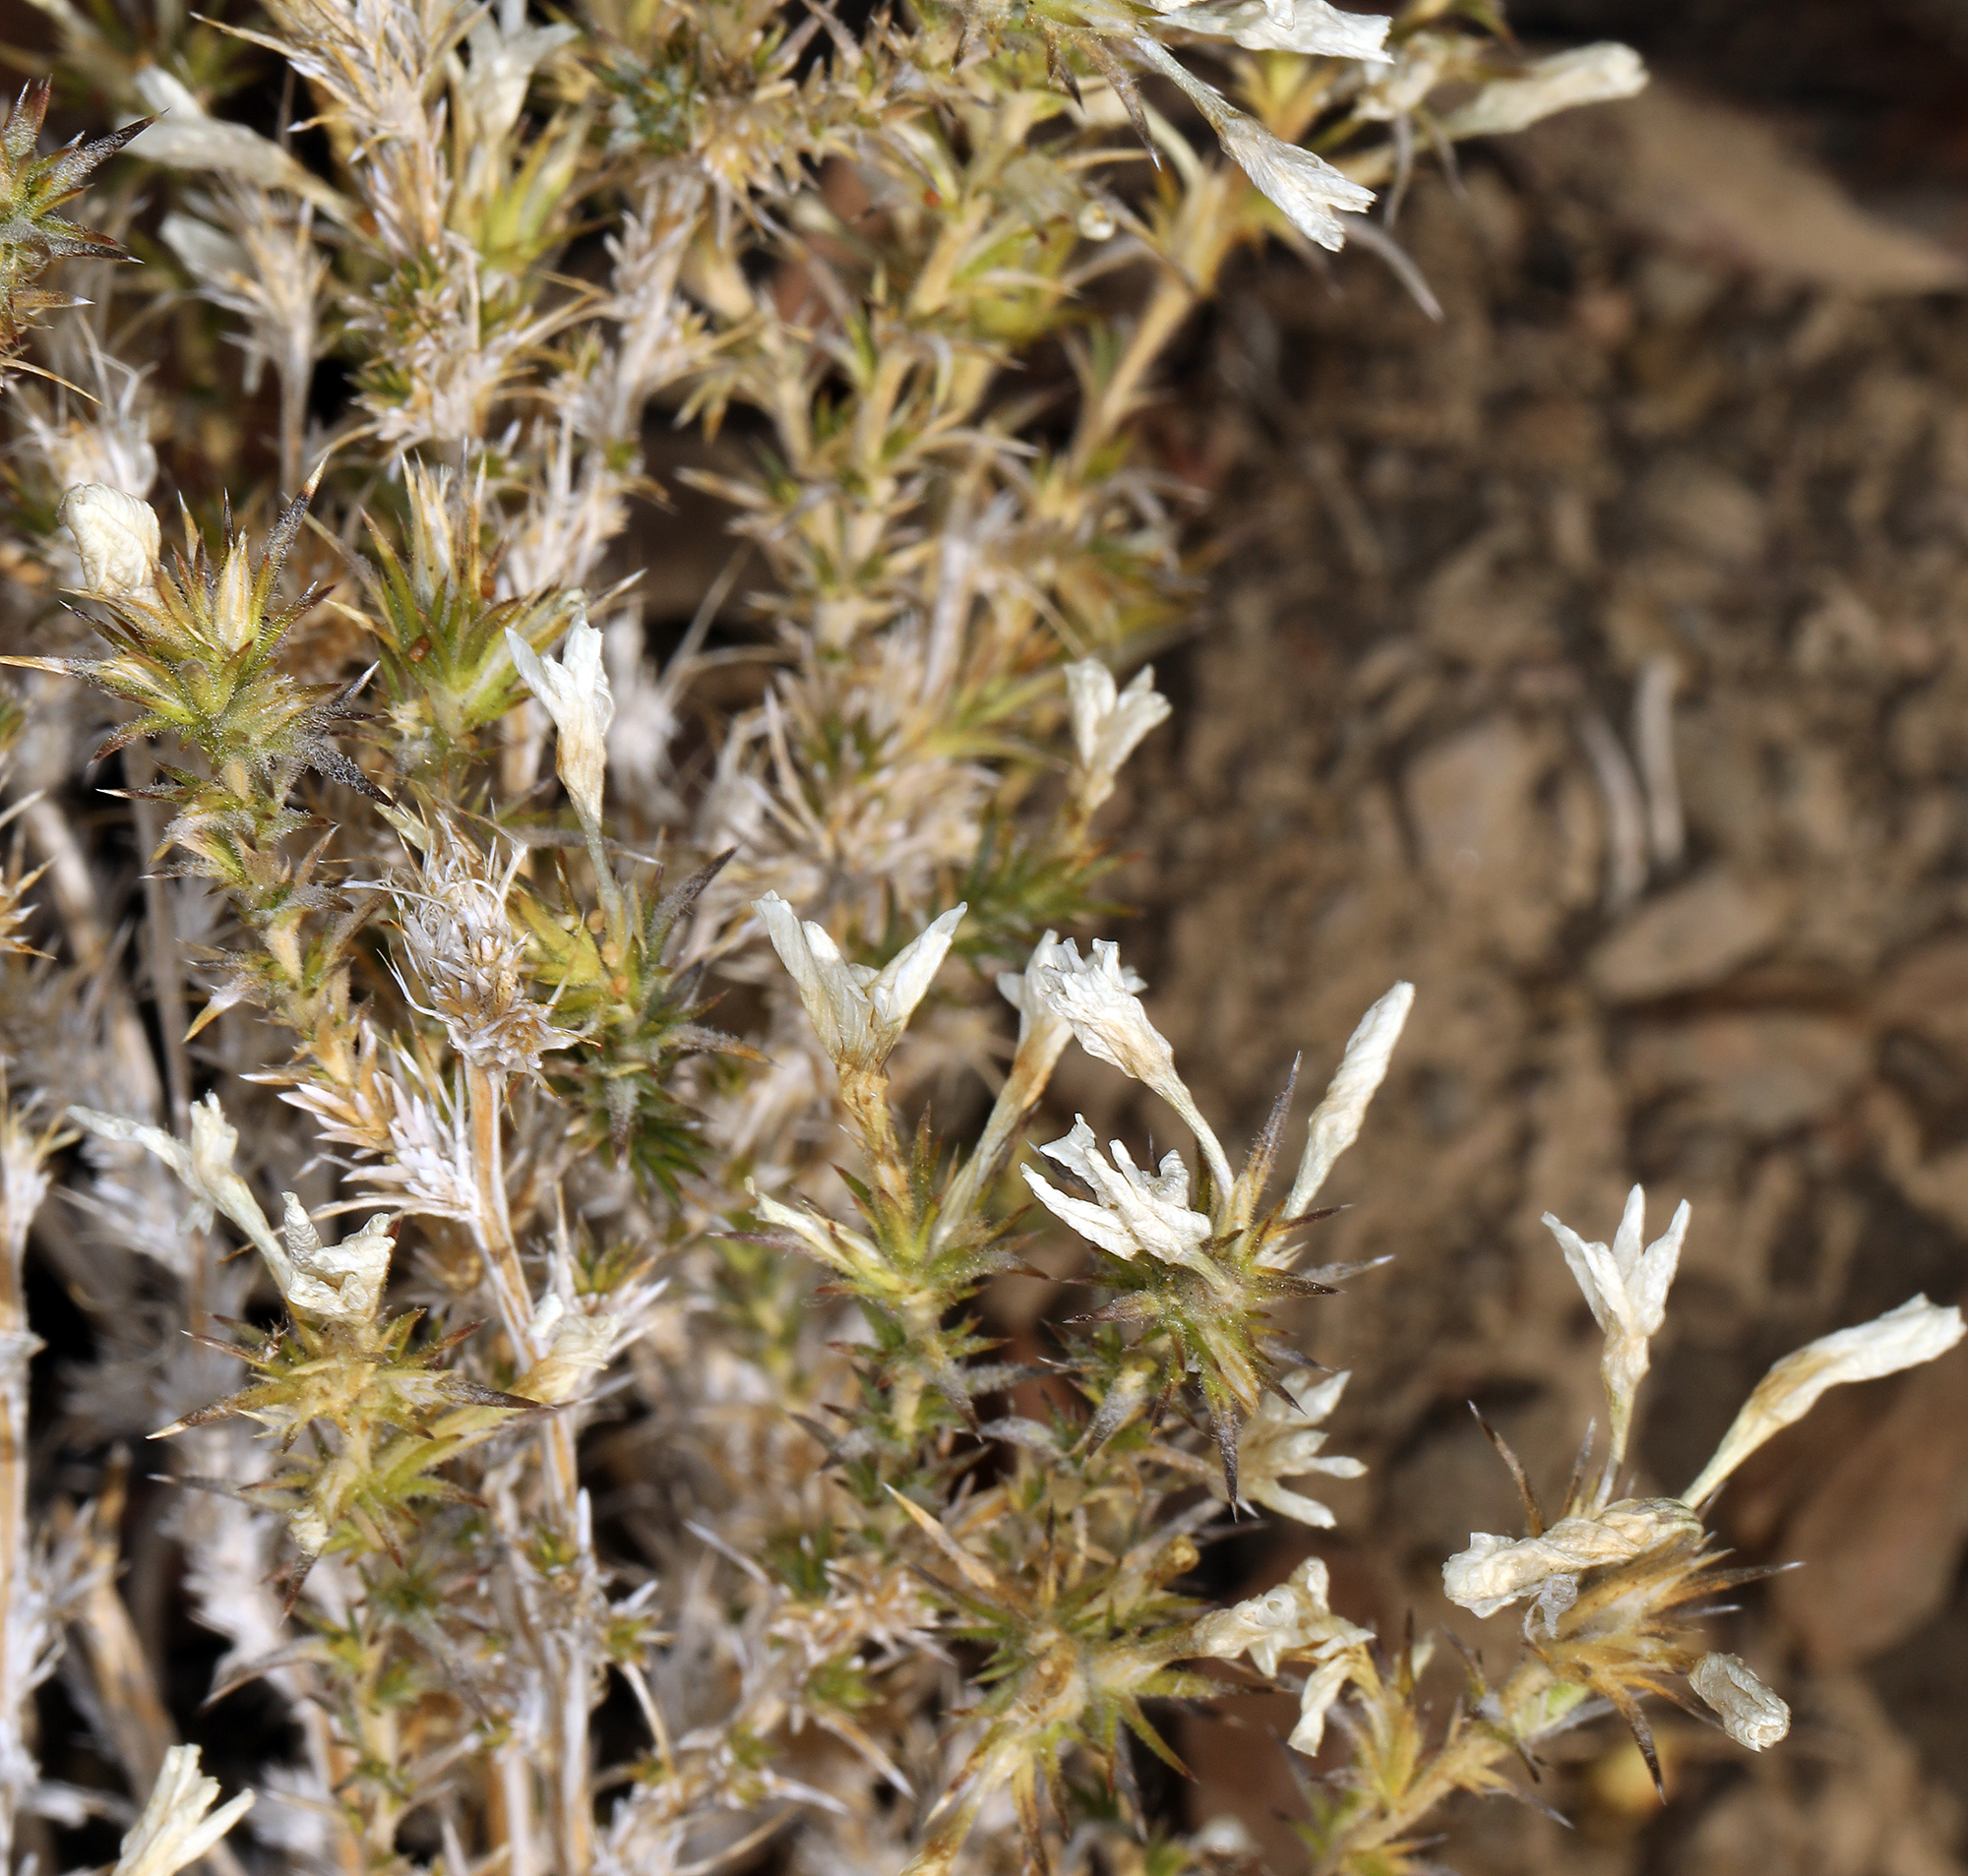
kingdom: Plantae
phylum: Tracheophyta
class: Magnoliopsida
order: Ericales
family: Polemoniaceae
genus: Linanthus
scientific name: Linanthus pungens
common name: Granite prickly phlox
